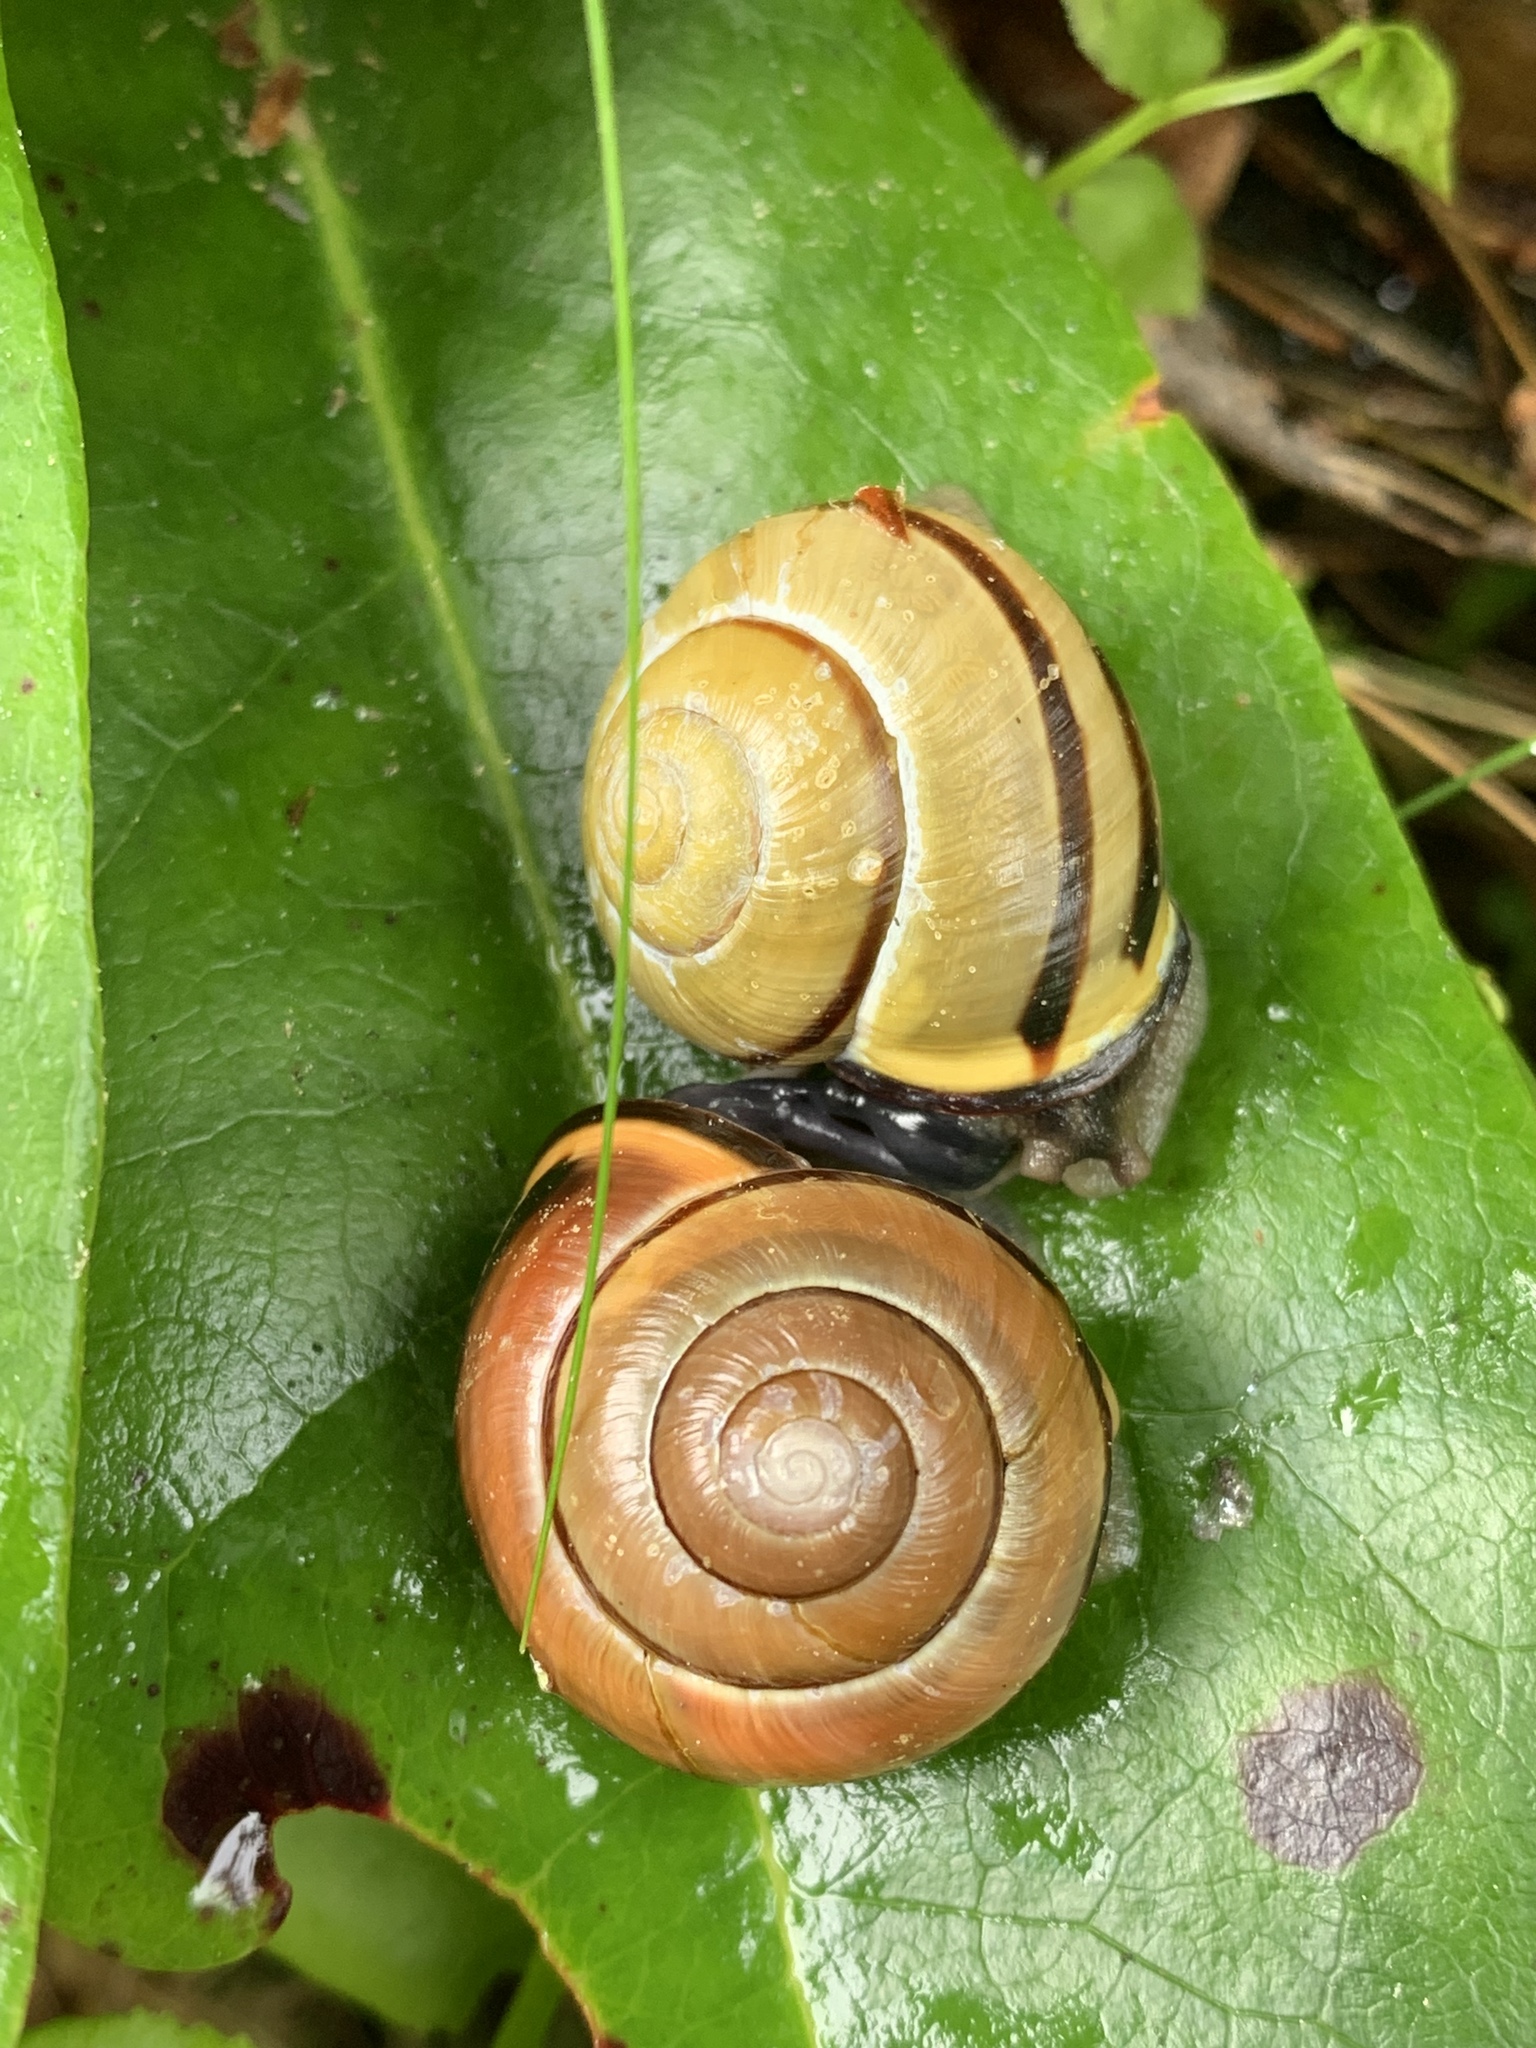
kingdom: Animalia
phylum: Mollusca
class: Gastropoda
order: Stylommatophora
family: Helicidae
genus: Cepaea
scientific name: Cepaea nemoralis
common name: Grovesnail
